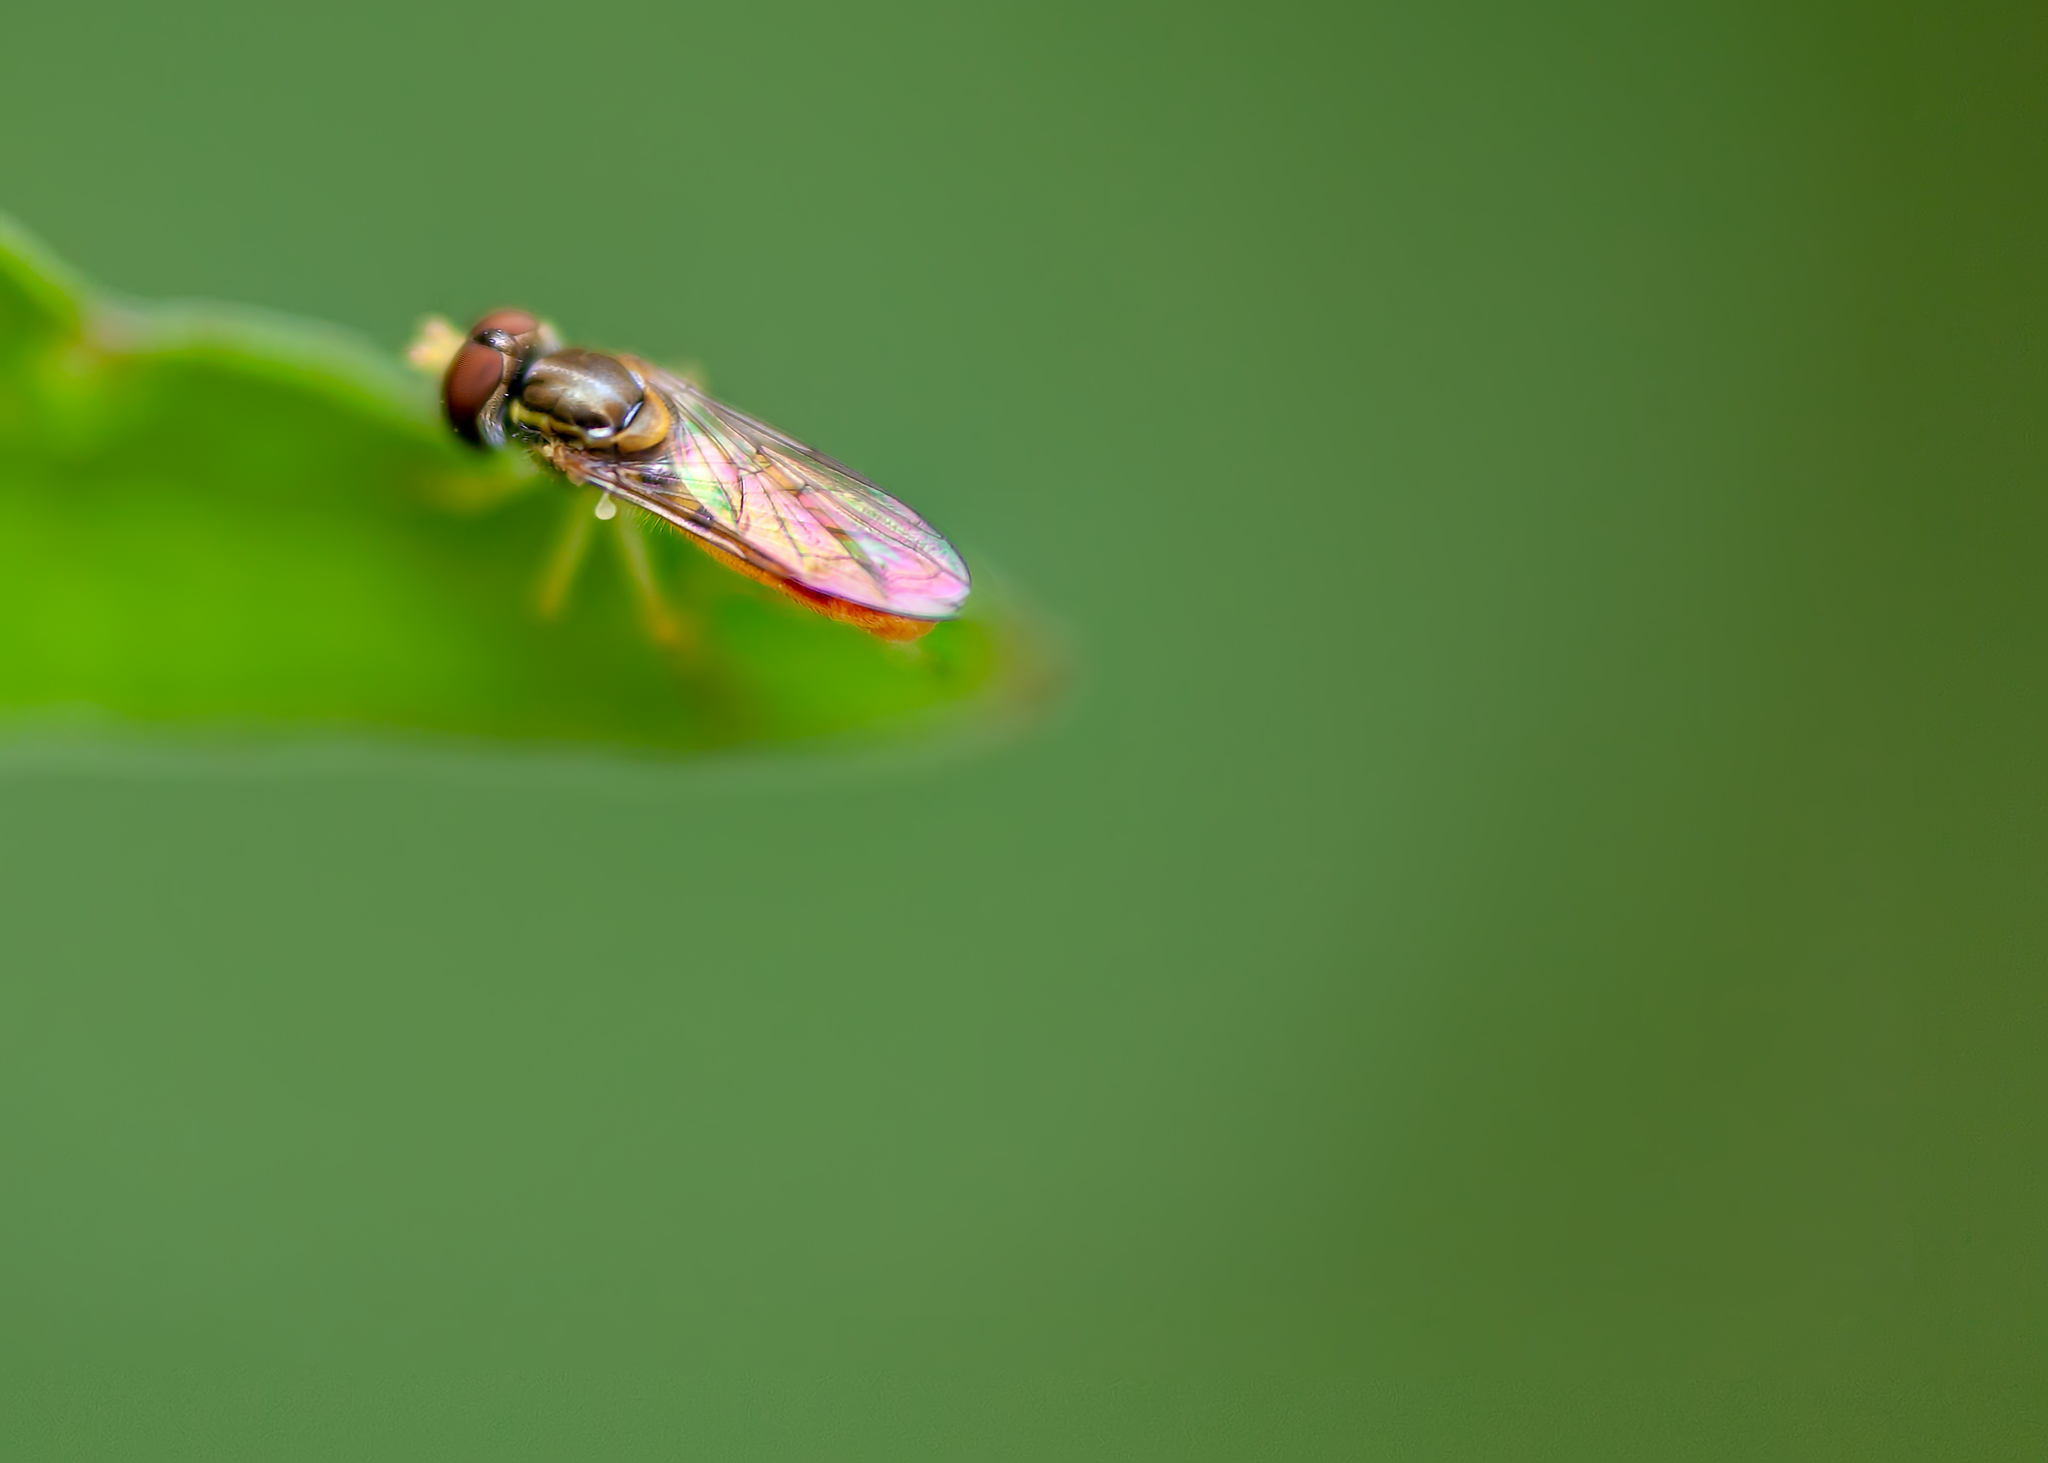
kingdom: Animalia
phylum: Arthropoda
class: Insecta
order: Diptera
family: Syrphidae
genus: Toxomerus
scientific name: Toxomerus
